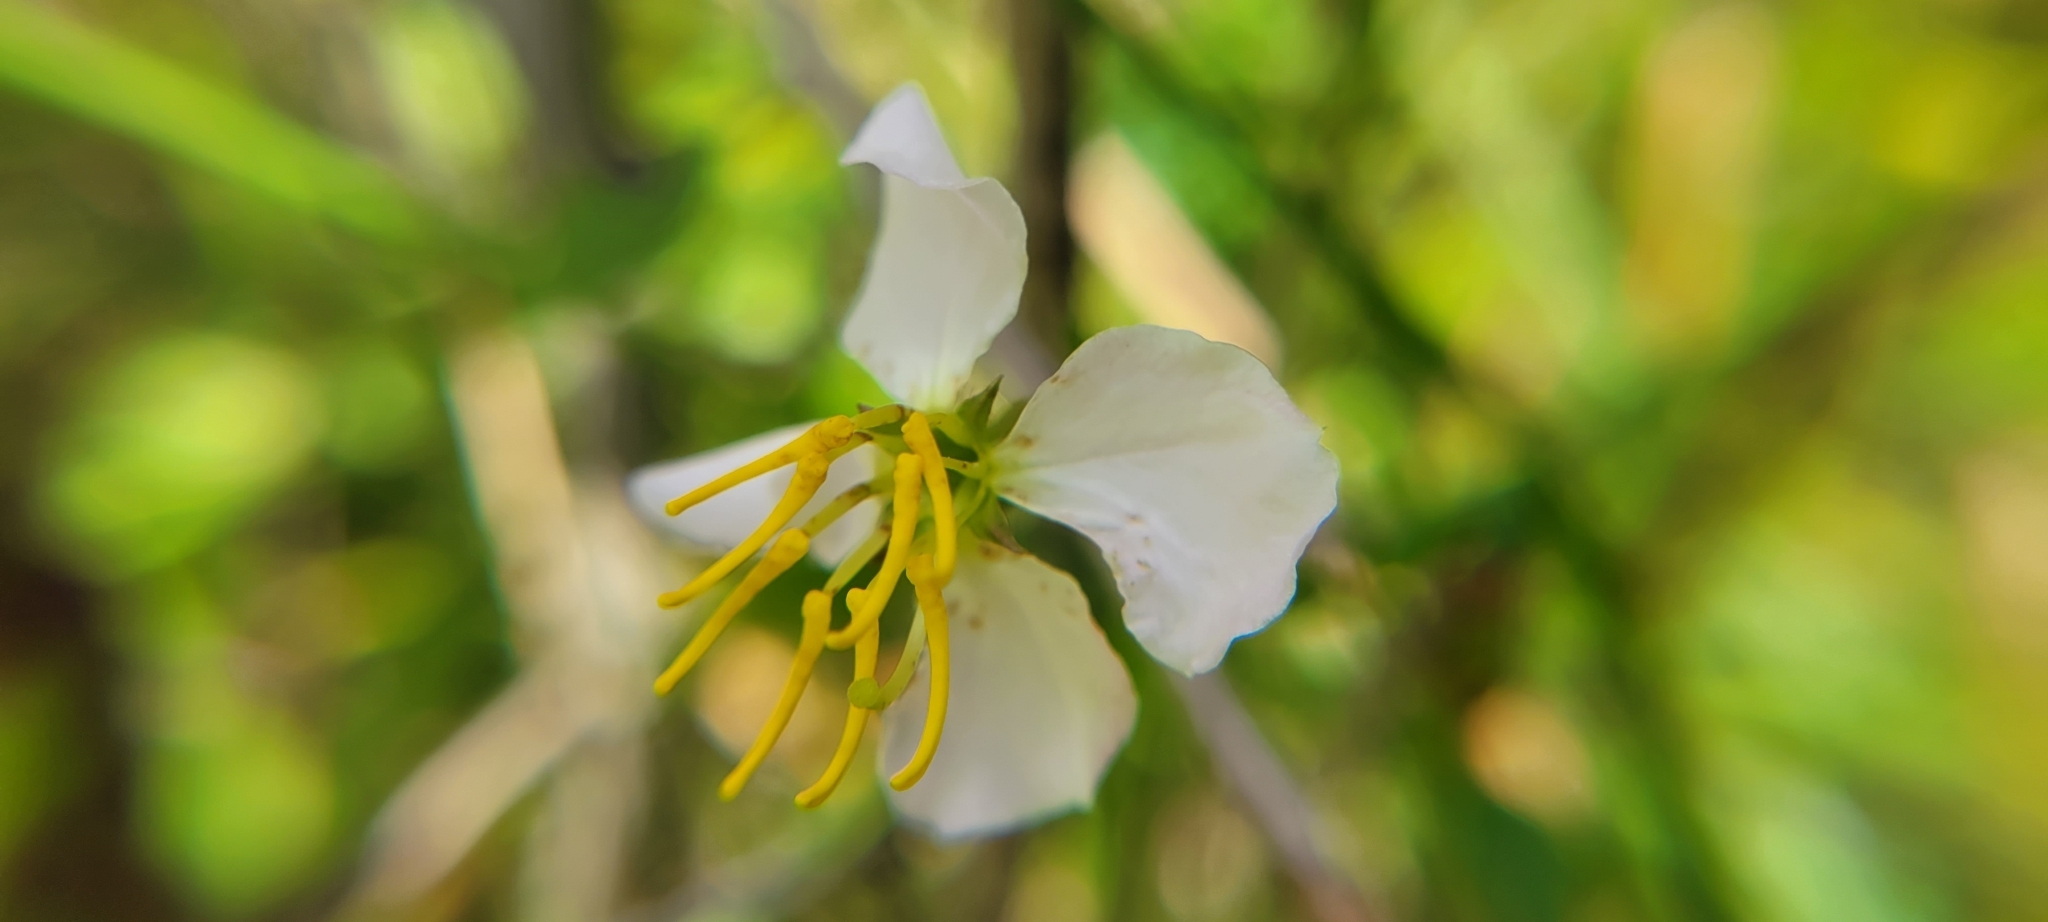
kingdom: Plantae
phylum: Tracheophyta
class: Magnoliopsida
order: Myrtales
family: Melastomataceae
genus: Rhexia
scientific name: Rhexia mariana
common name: Dull meadow-pitcher
